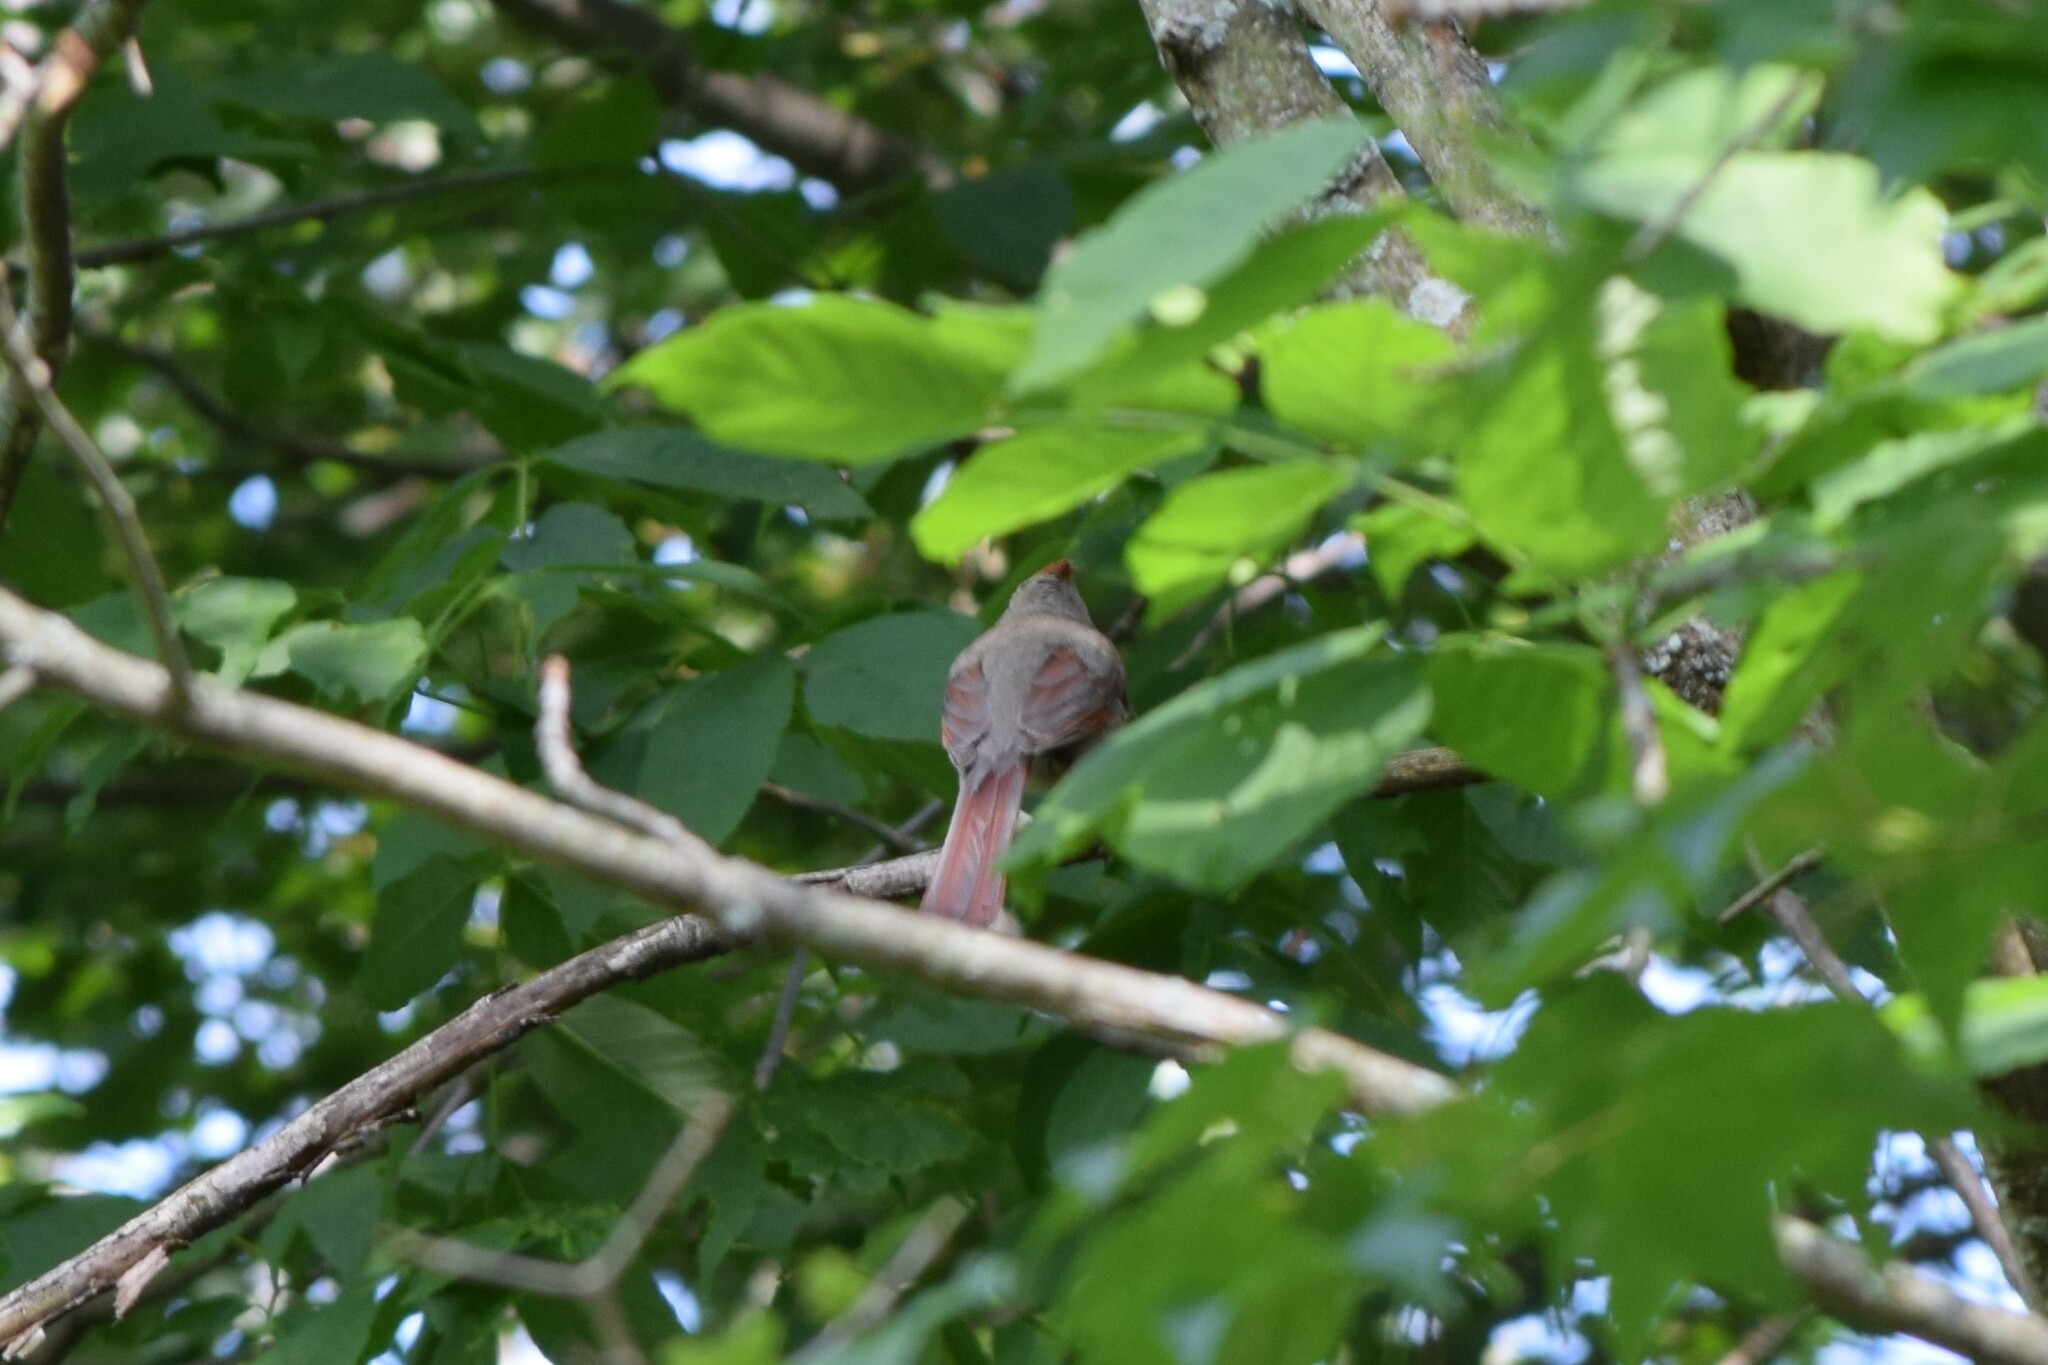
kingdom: Animalia
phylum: Chordata
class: Aves
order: Passeriformes
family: Cardinalidae
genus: Cardinalis
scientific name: Cardinalis cardinalis
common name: Northern cardinal
